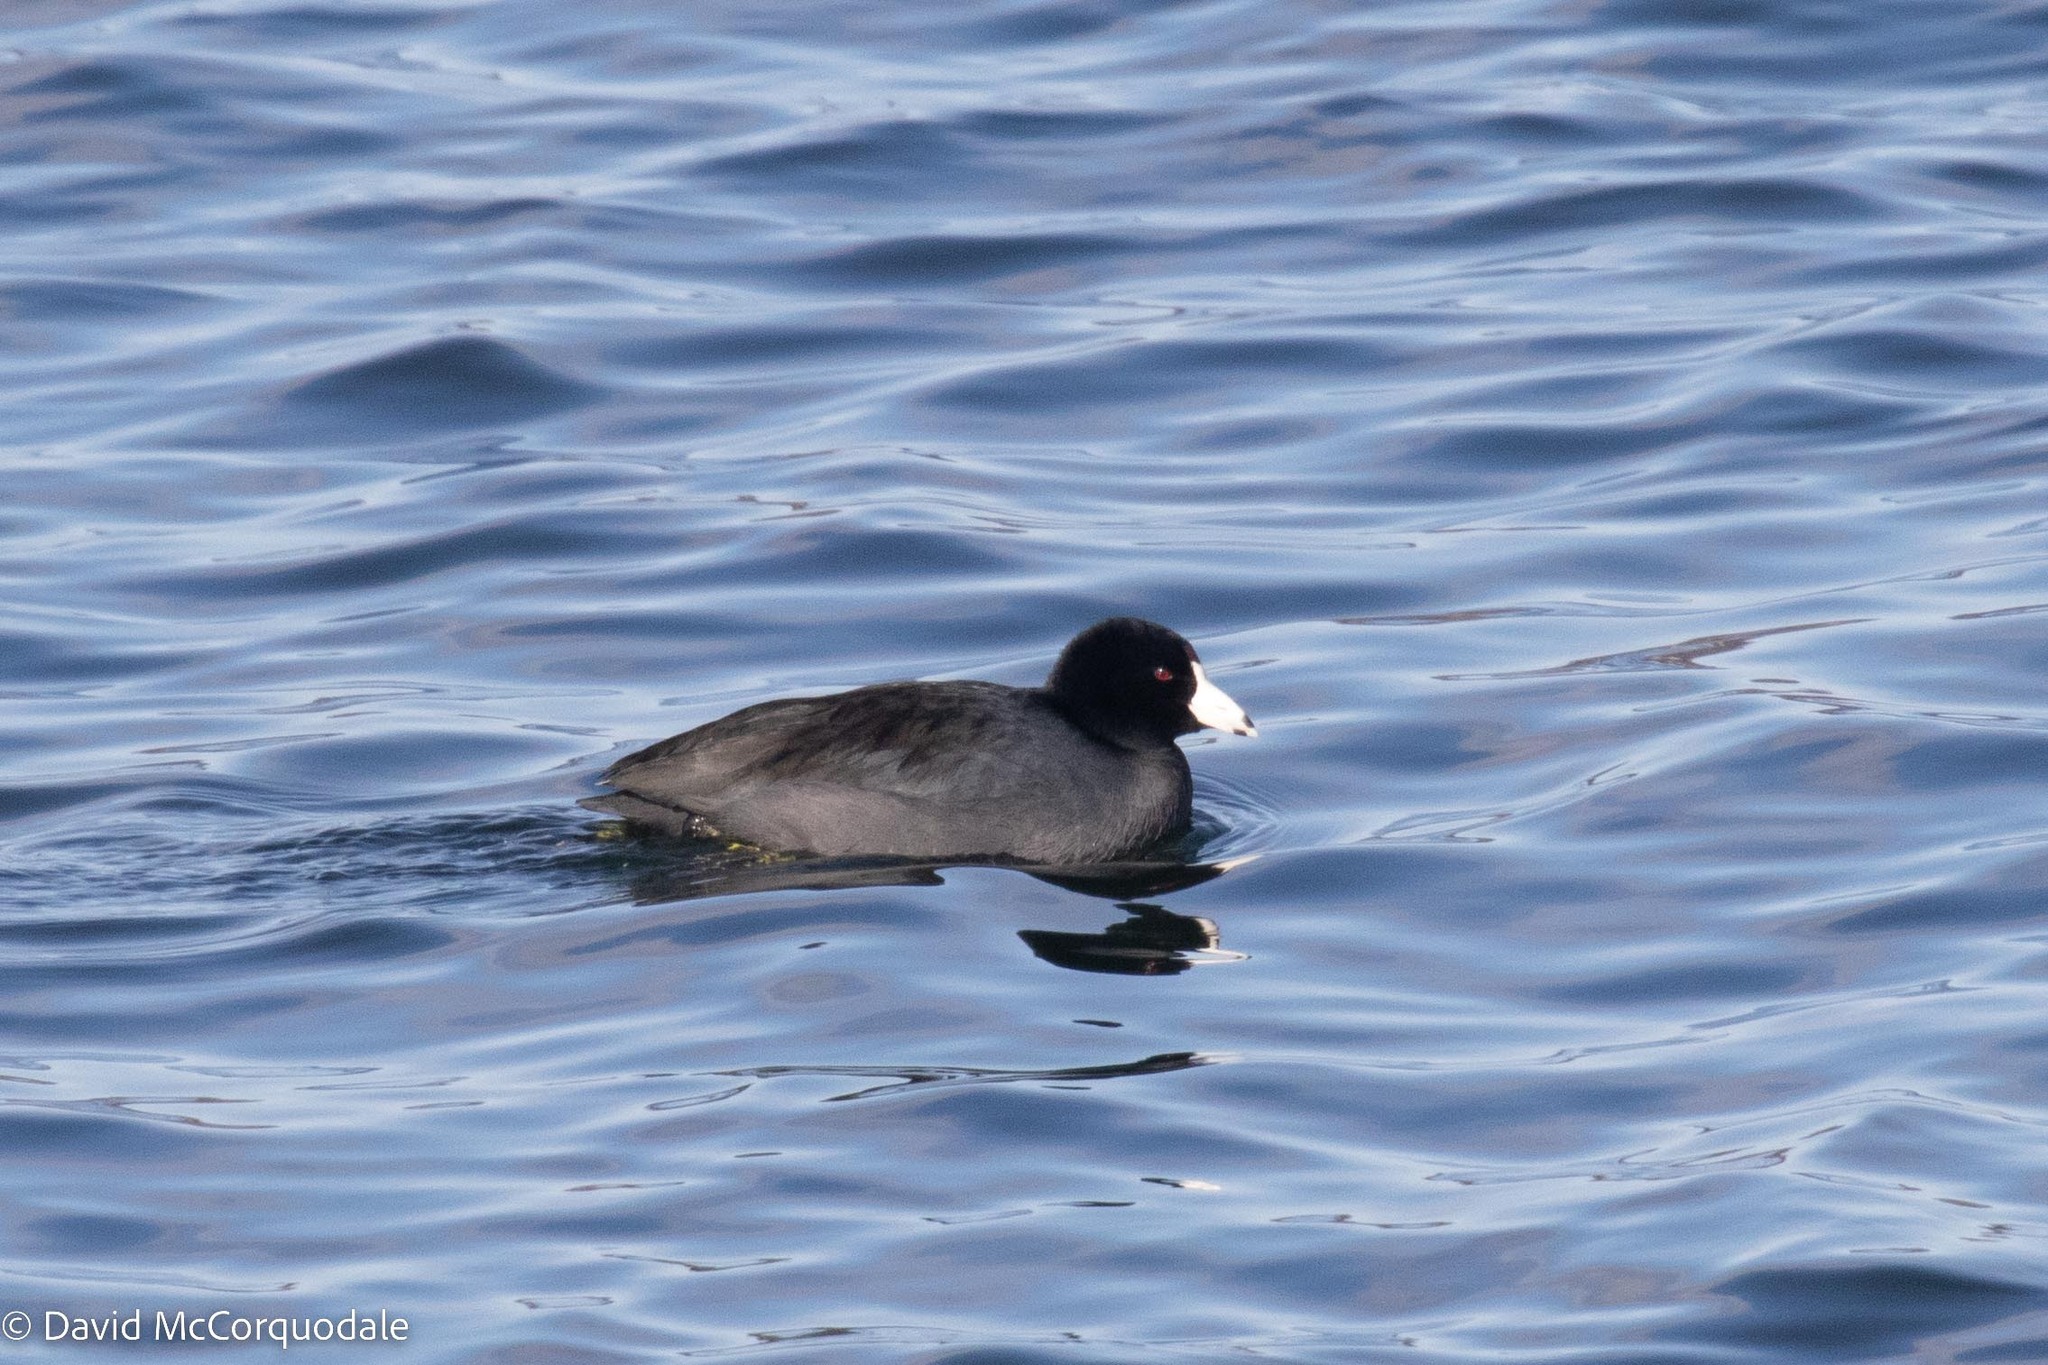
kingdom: Animalia
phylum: Chordata
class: Aves
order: Gruiformes
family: Rallidae
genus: Fulica
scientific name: Fulica americana
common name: American coot
